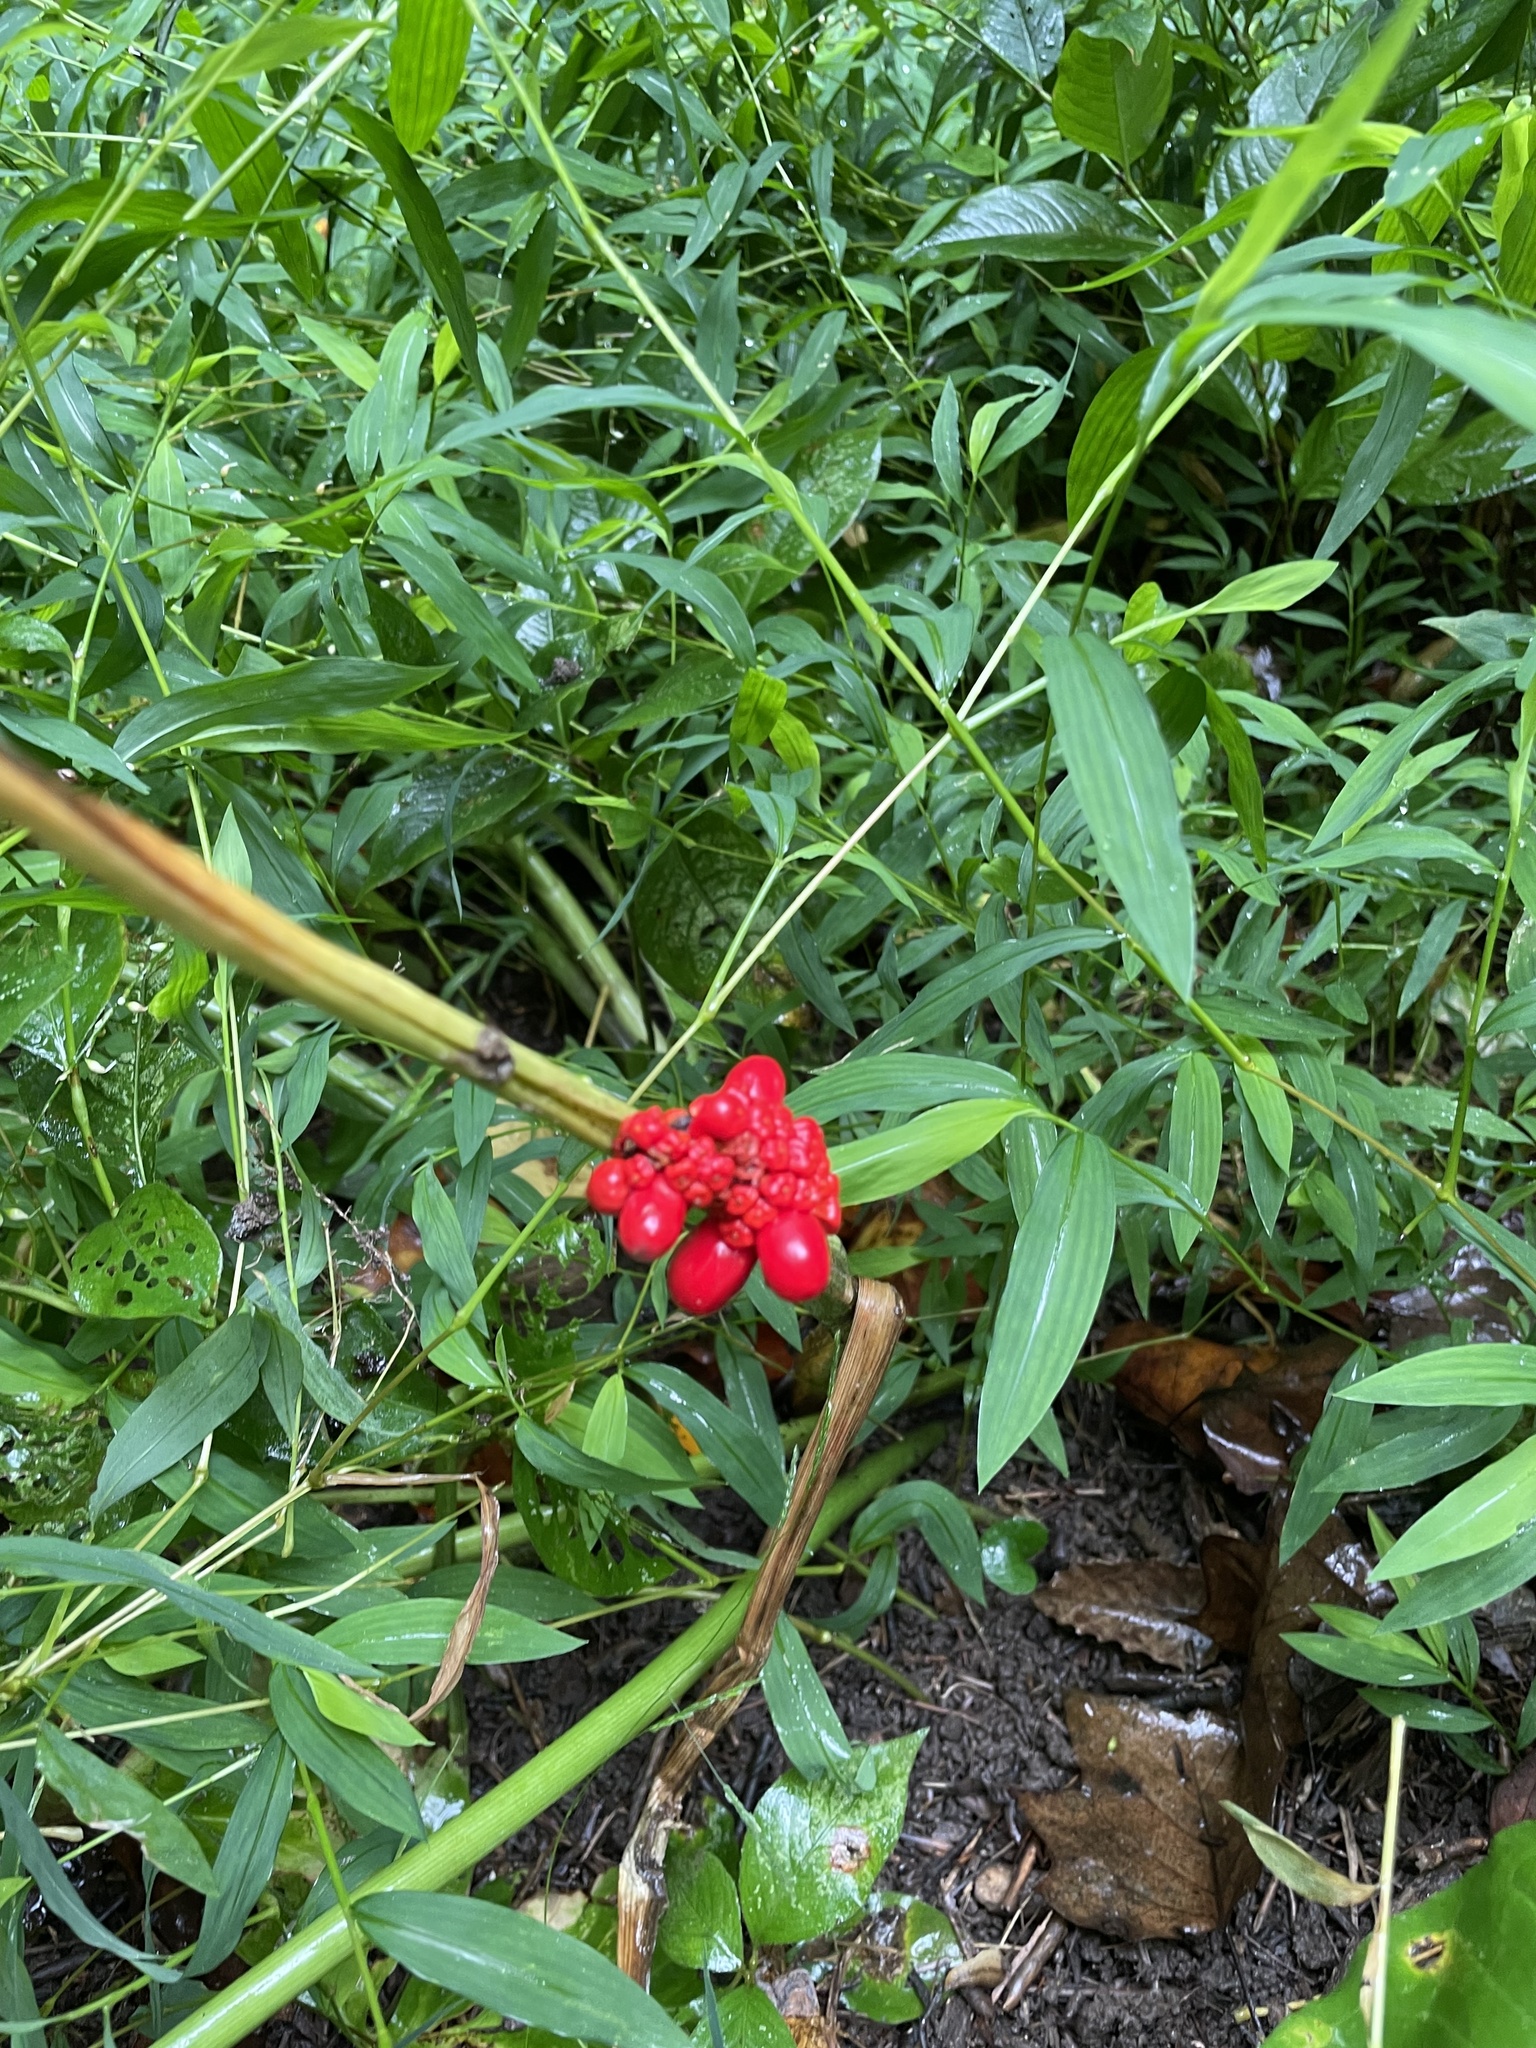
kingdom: Plantae
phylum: Tracheophyta
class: Liliopsida
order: Alismatales
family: Araceae
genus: Arisaema
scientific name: Arisaema triphyllum
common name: Jack-in-the-pulpit
